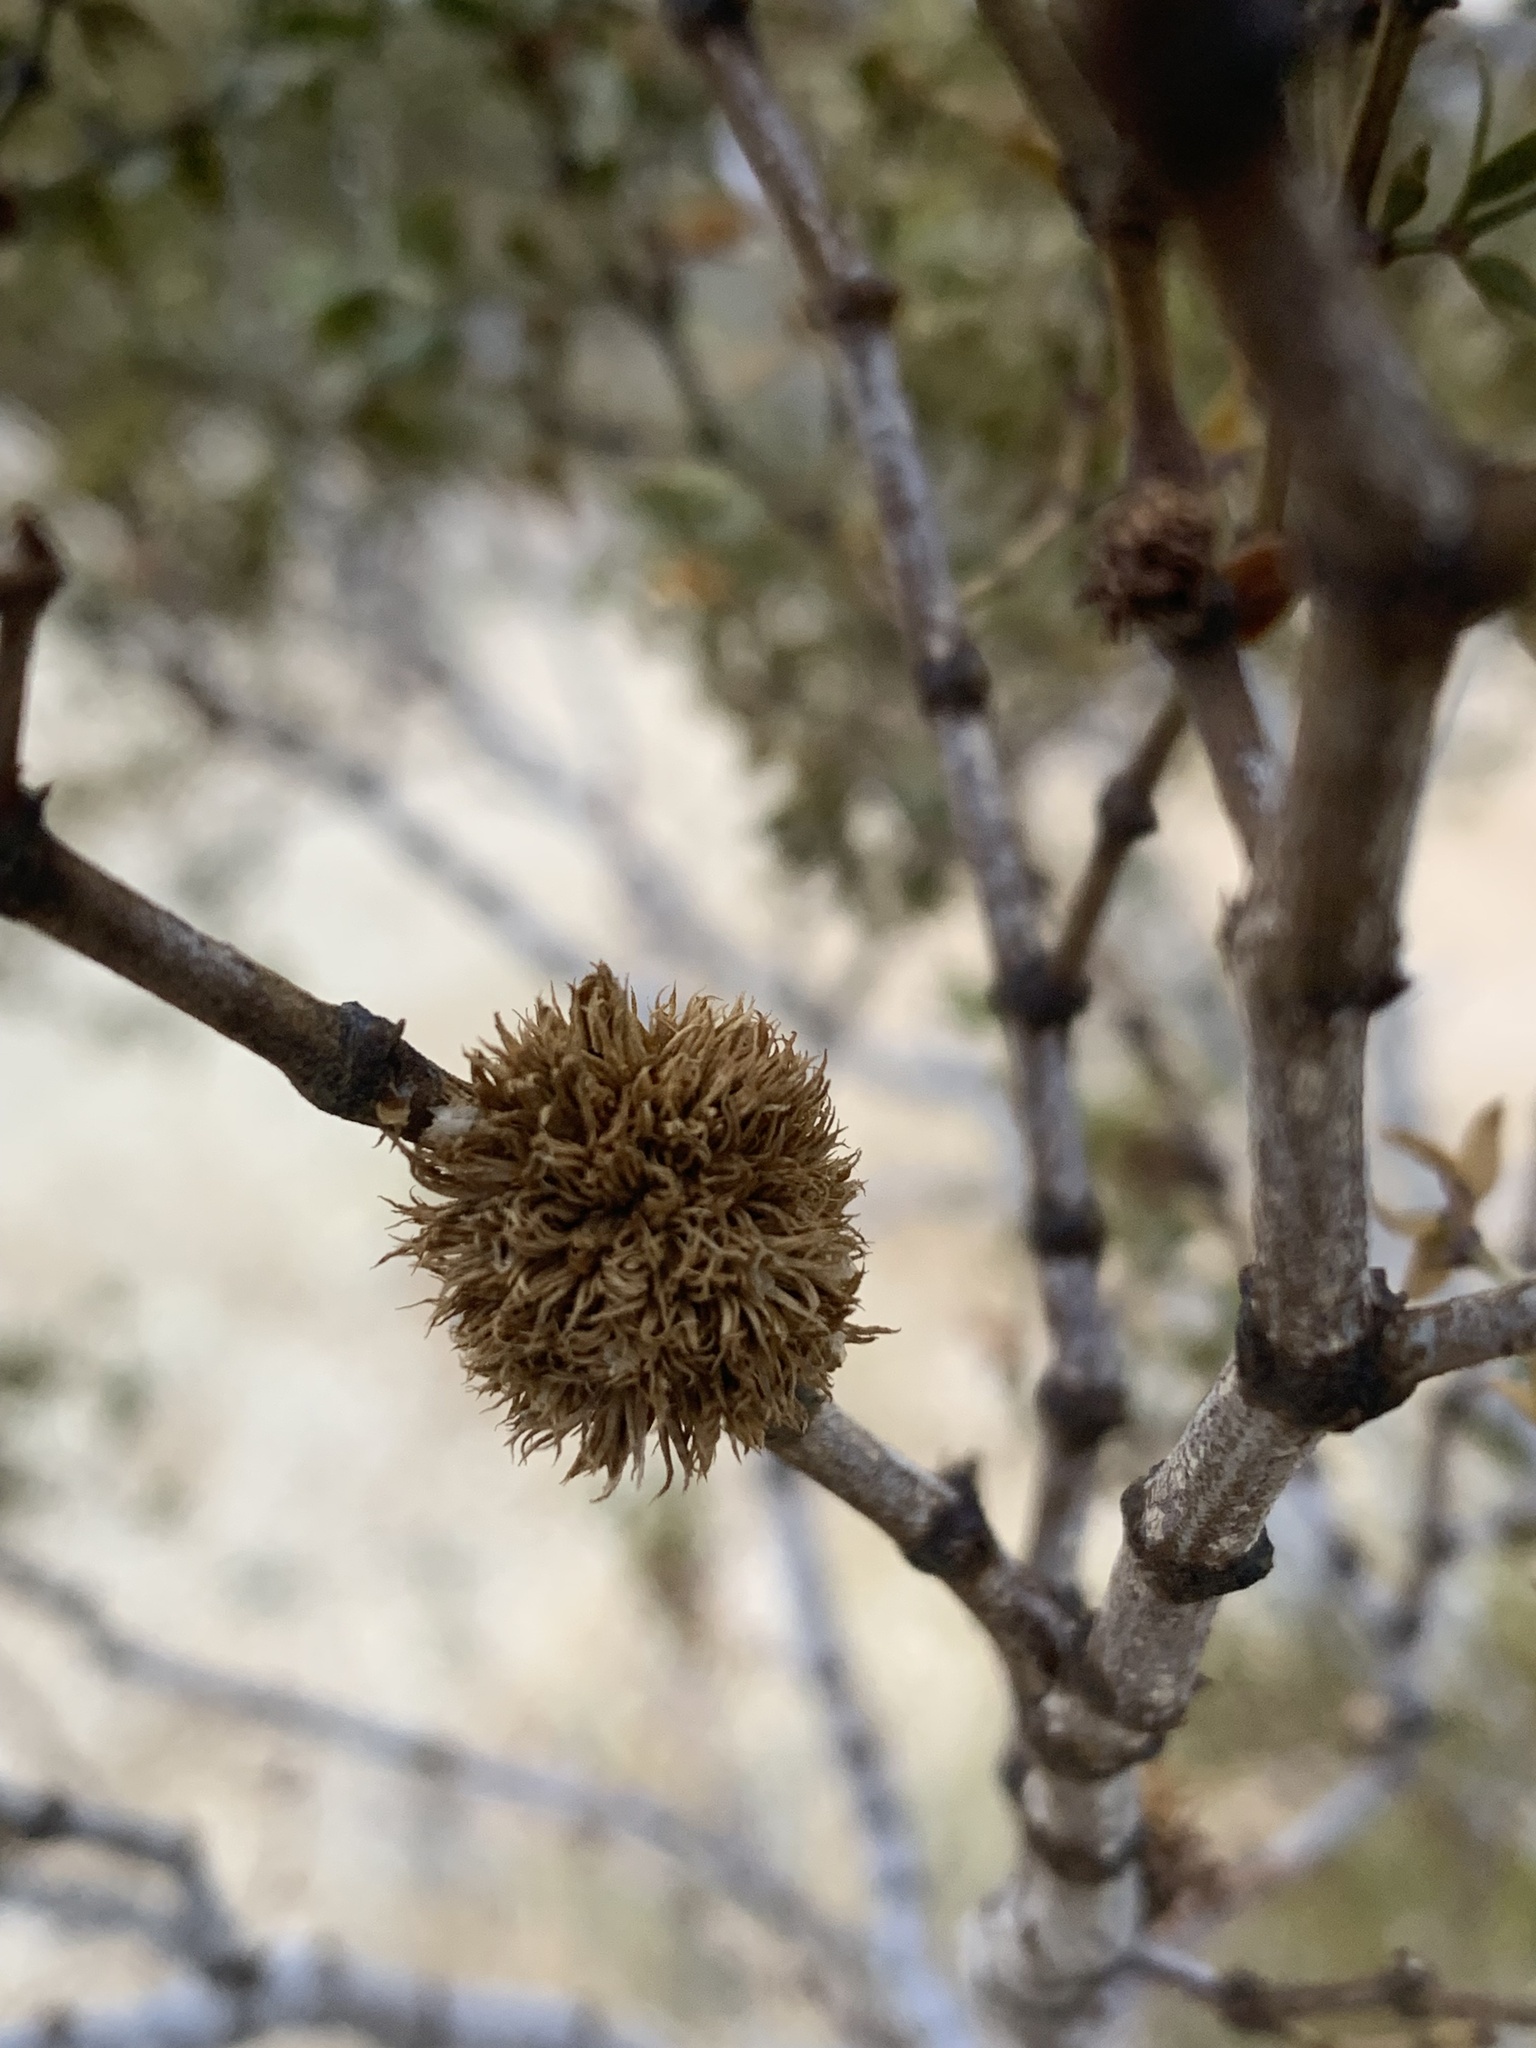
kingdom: Animalia
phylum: Arthropoda
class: Insecta
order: Diptera
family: Cecidomyiidae
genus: Asphondylia
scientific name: Asphondylia auripila
